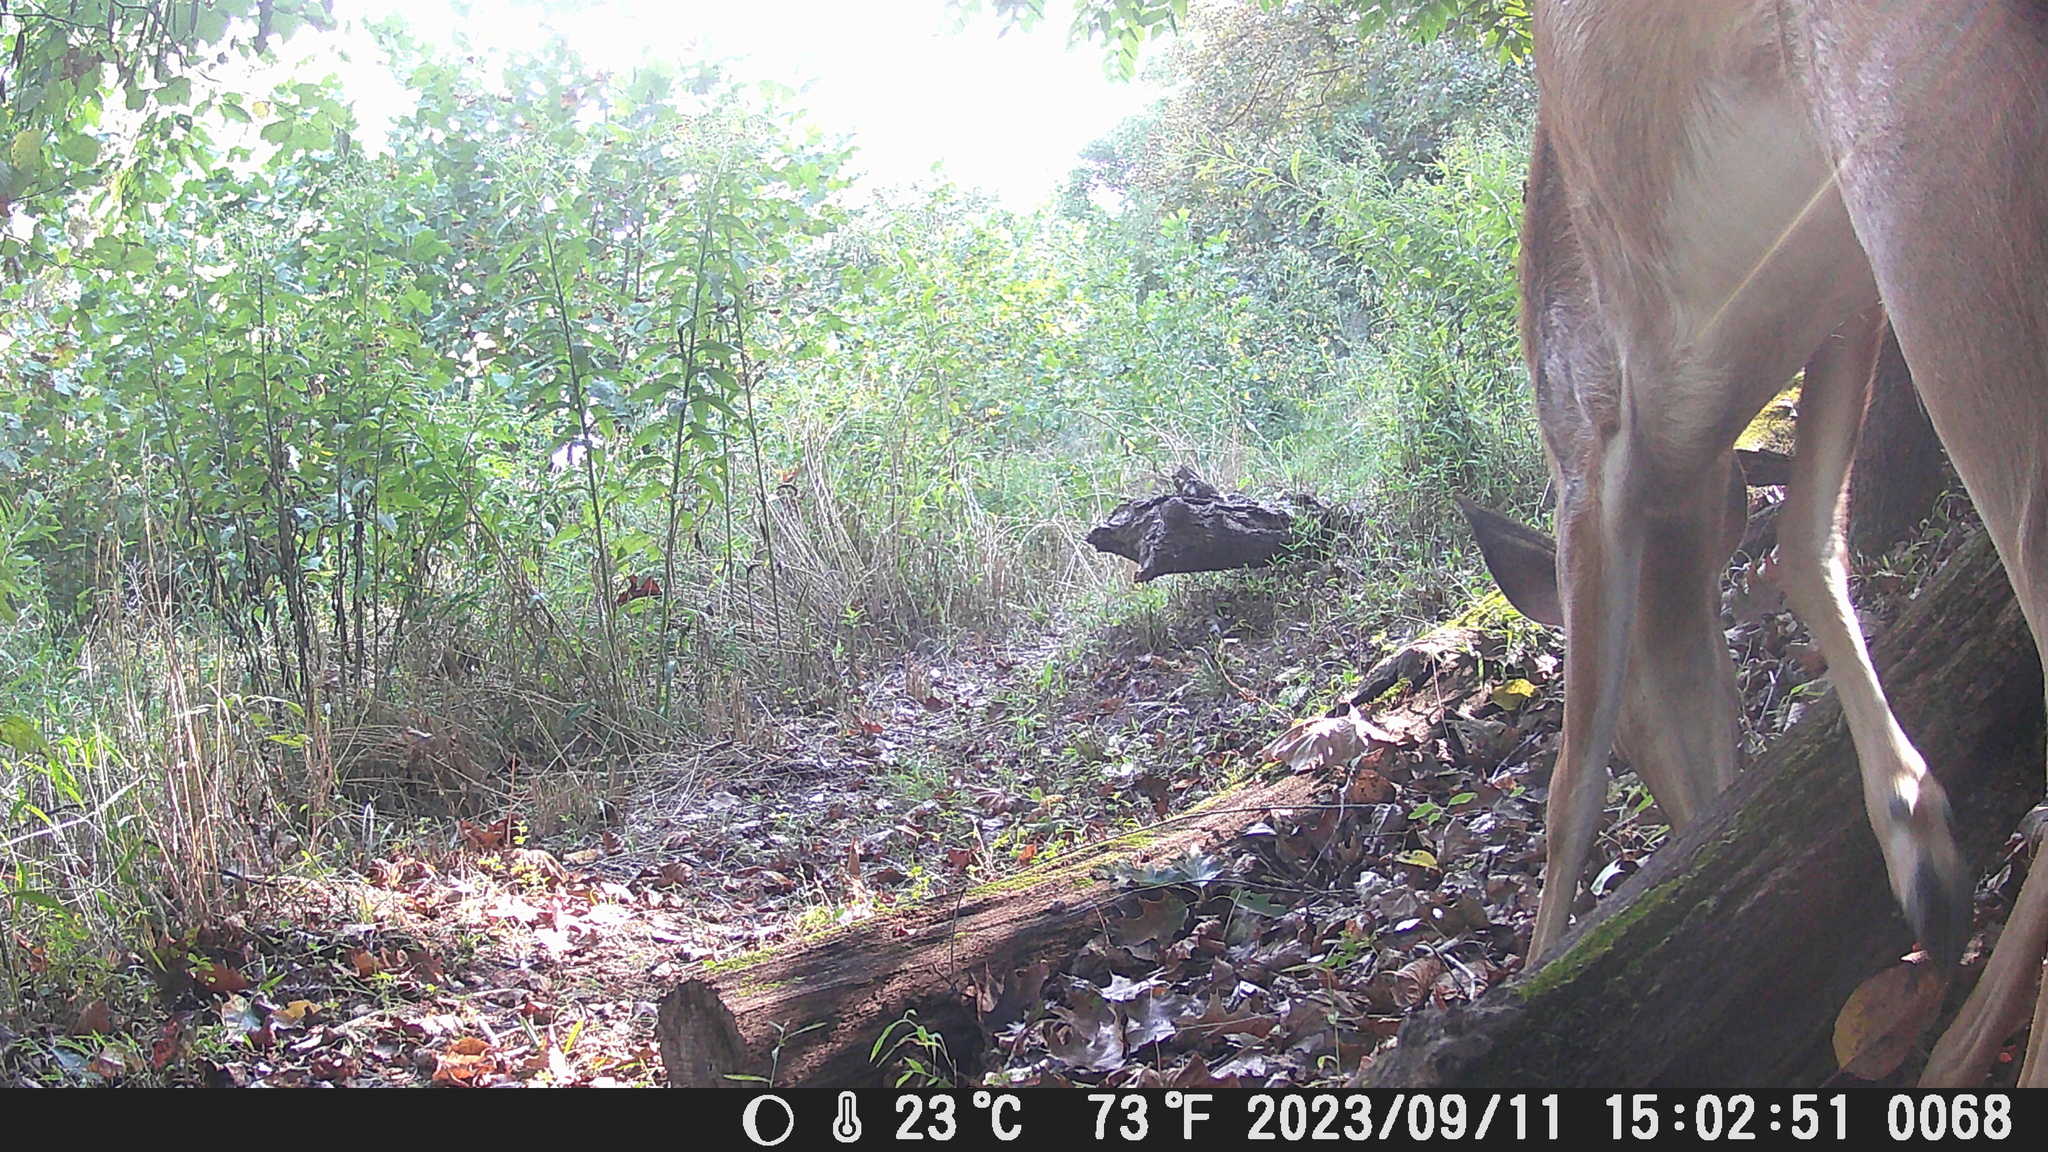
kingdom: Animalia
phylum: Chordata
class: Mammalia
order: Artiodactyla
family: Cervidae
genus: Odocoileus
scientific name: Odocoileus virginianus
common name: White-tailed deer
